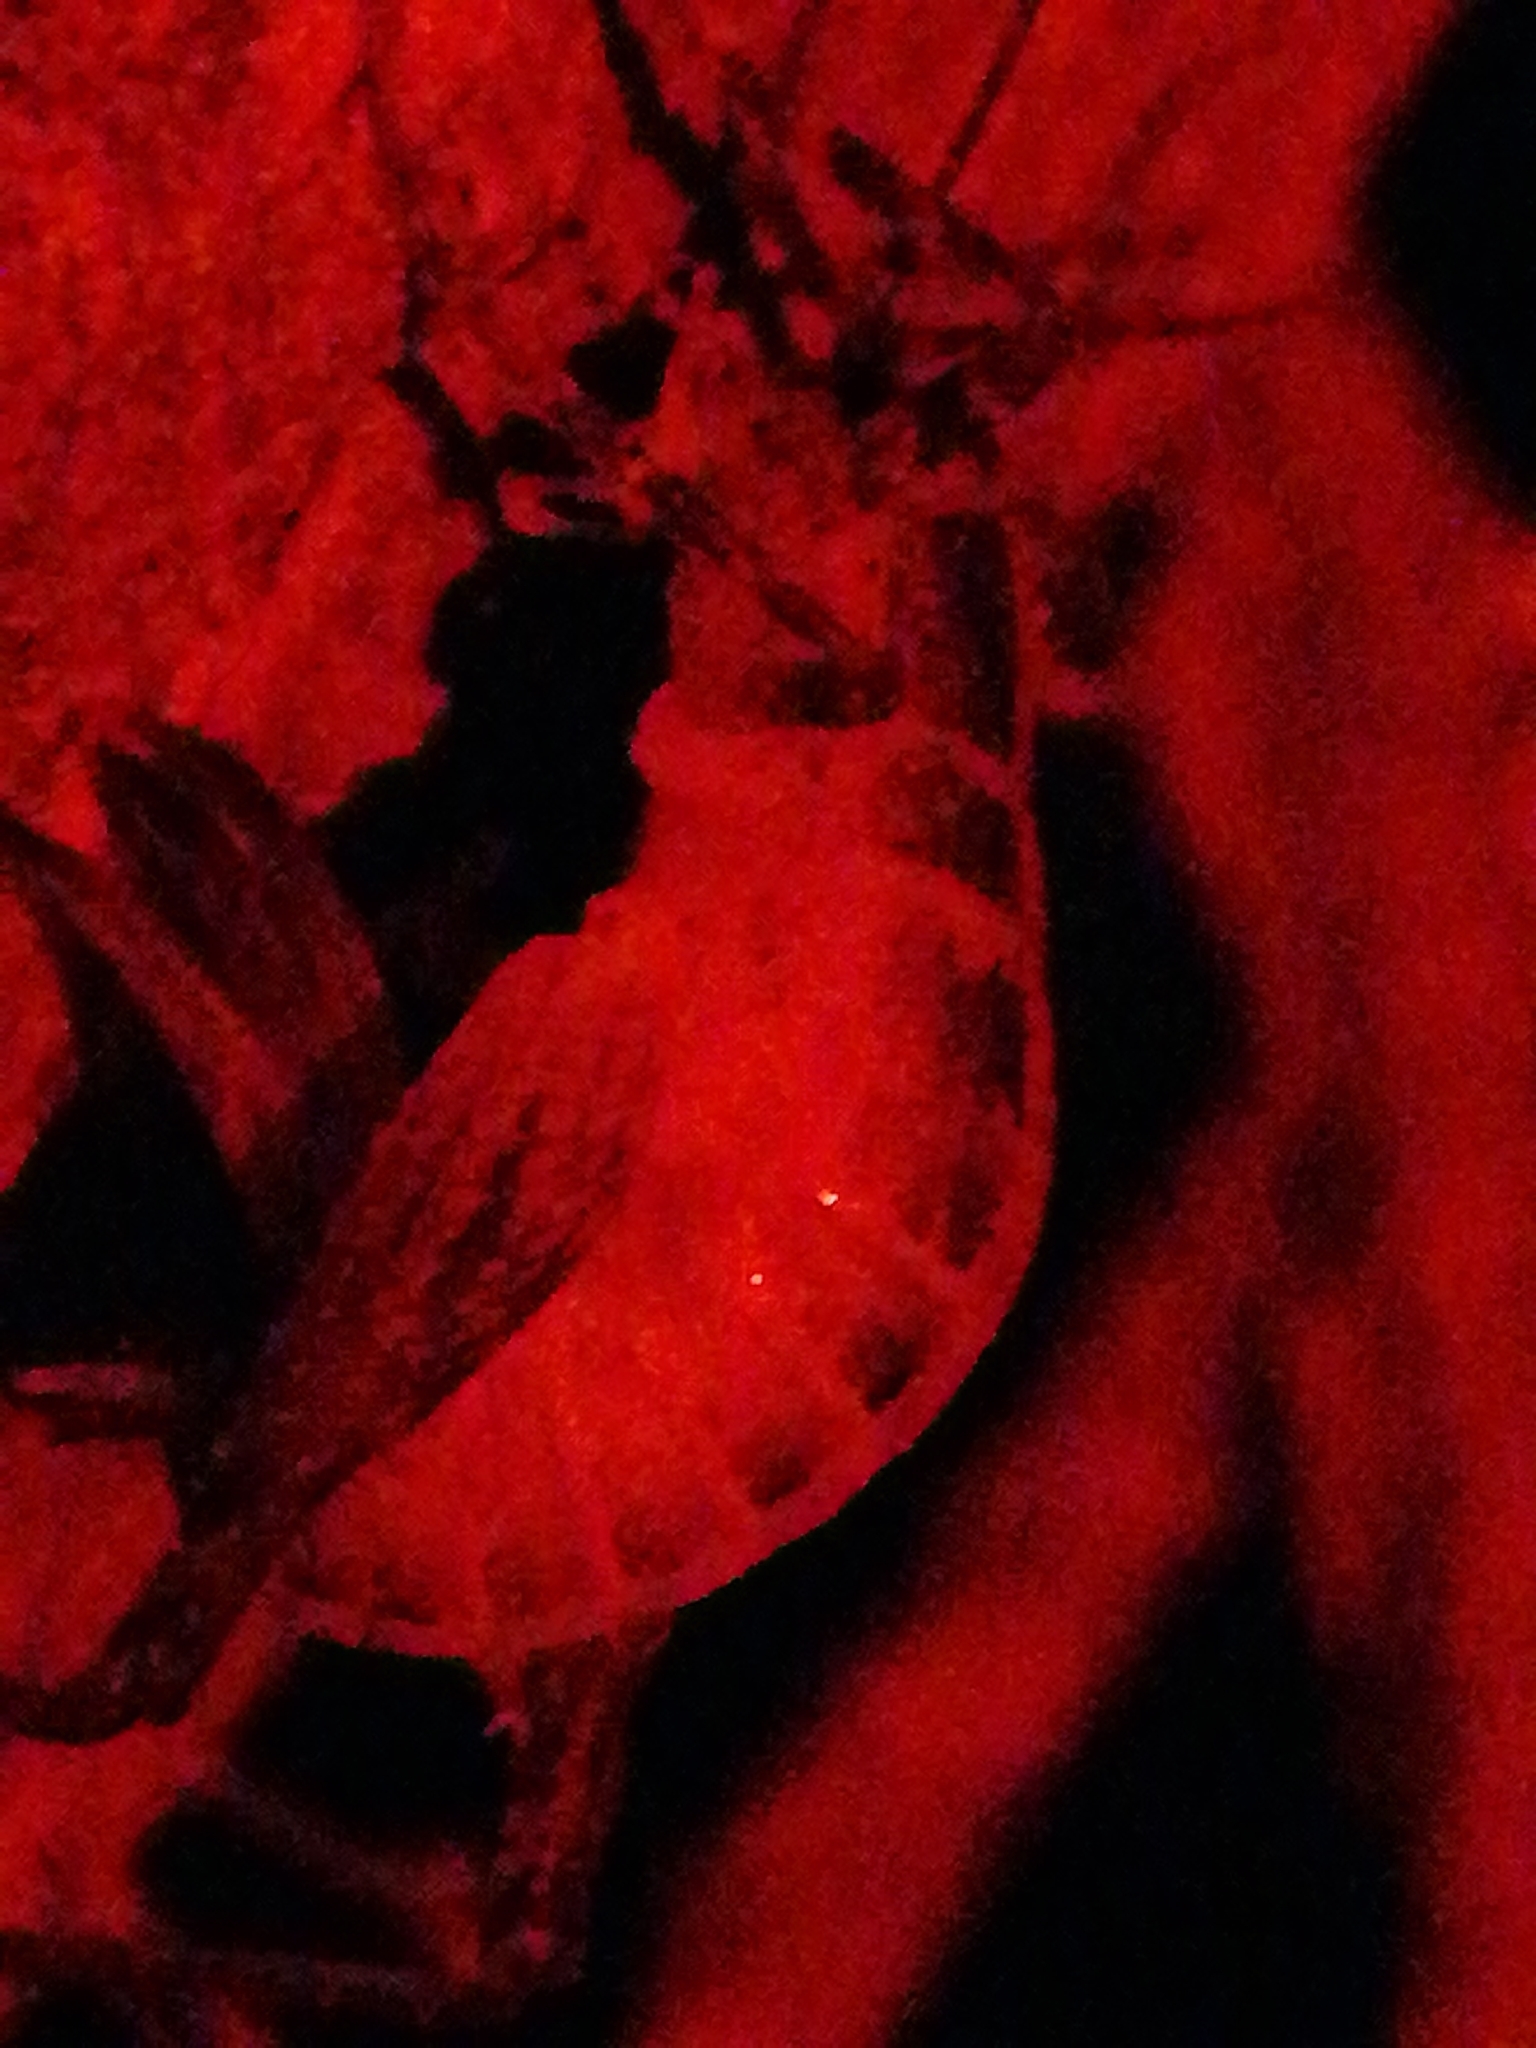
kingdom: Animalia
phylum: Arthropoda
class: Insecta
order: Orthoptera
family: Rhaphidophoridae
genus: Isoplectron
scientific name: Isoplectron armatum
